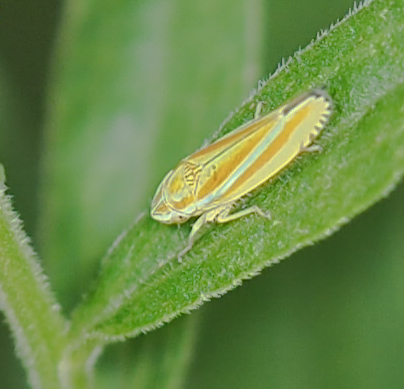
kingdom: Animalia
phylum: Arthropoda
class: Insecta
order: Hemiptera
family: Cicadellidae
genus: Graphocephala
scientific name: Graphocephala versuta
